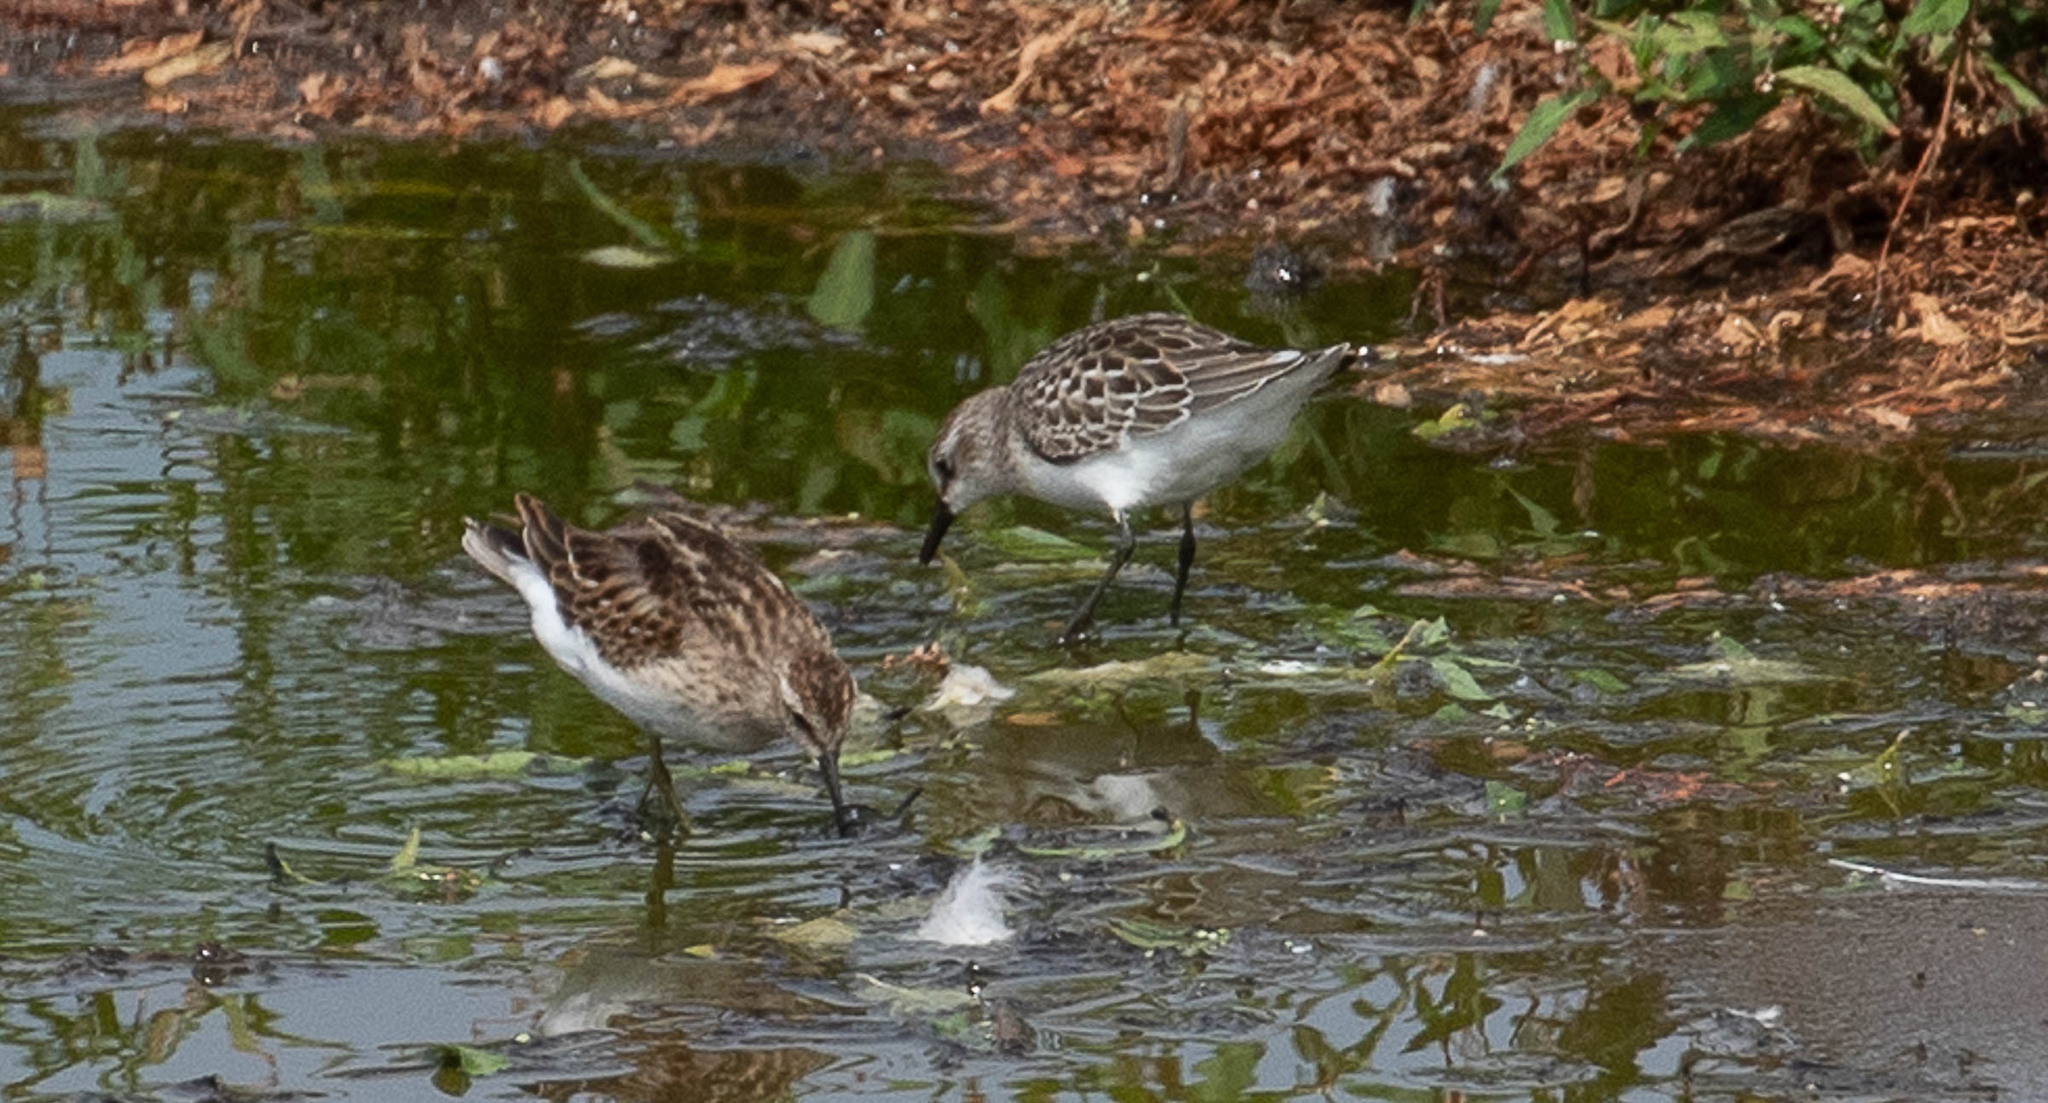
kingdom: Animalia
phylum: Chordata
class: Aves
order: Charadriiformes
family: Scolopacidae
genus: Calidris
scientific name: Calidris minutilla
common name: Least sandpiper
